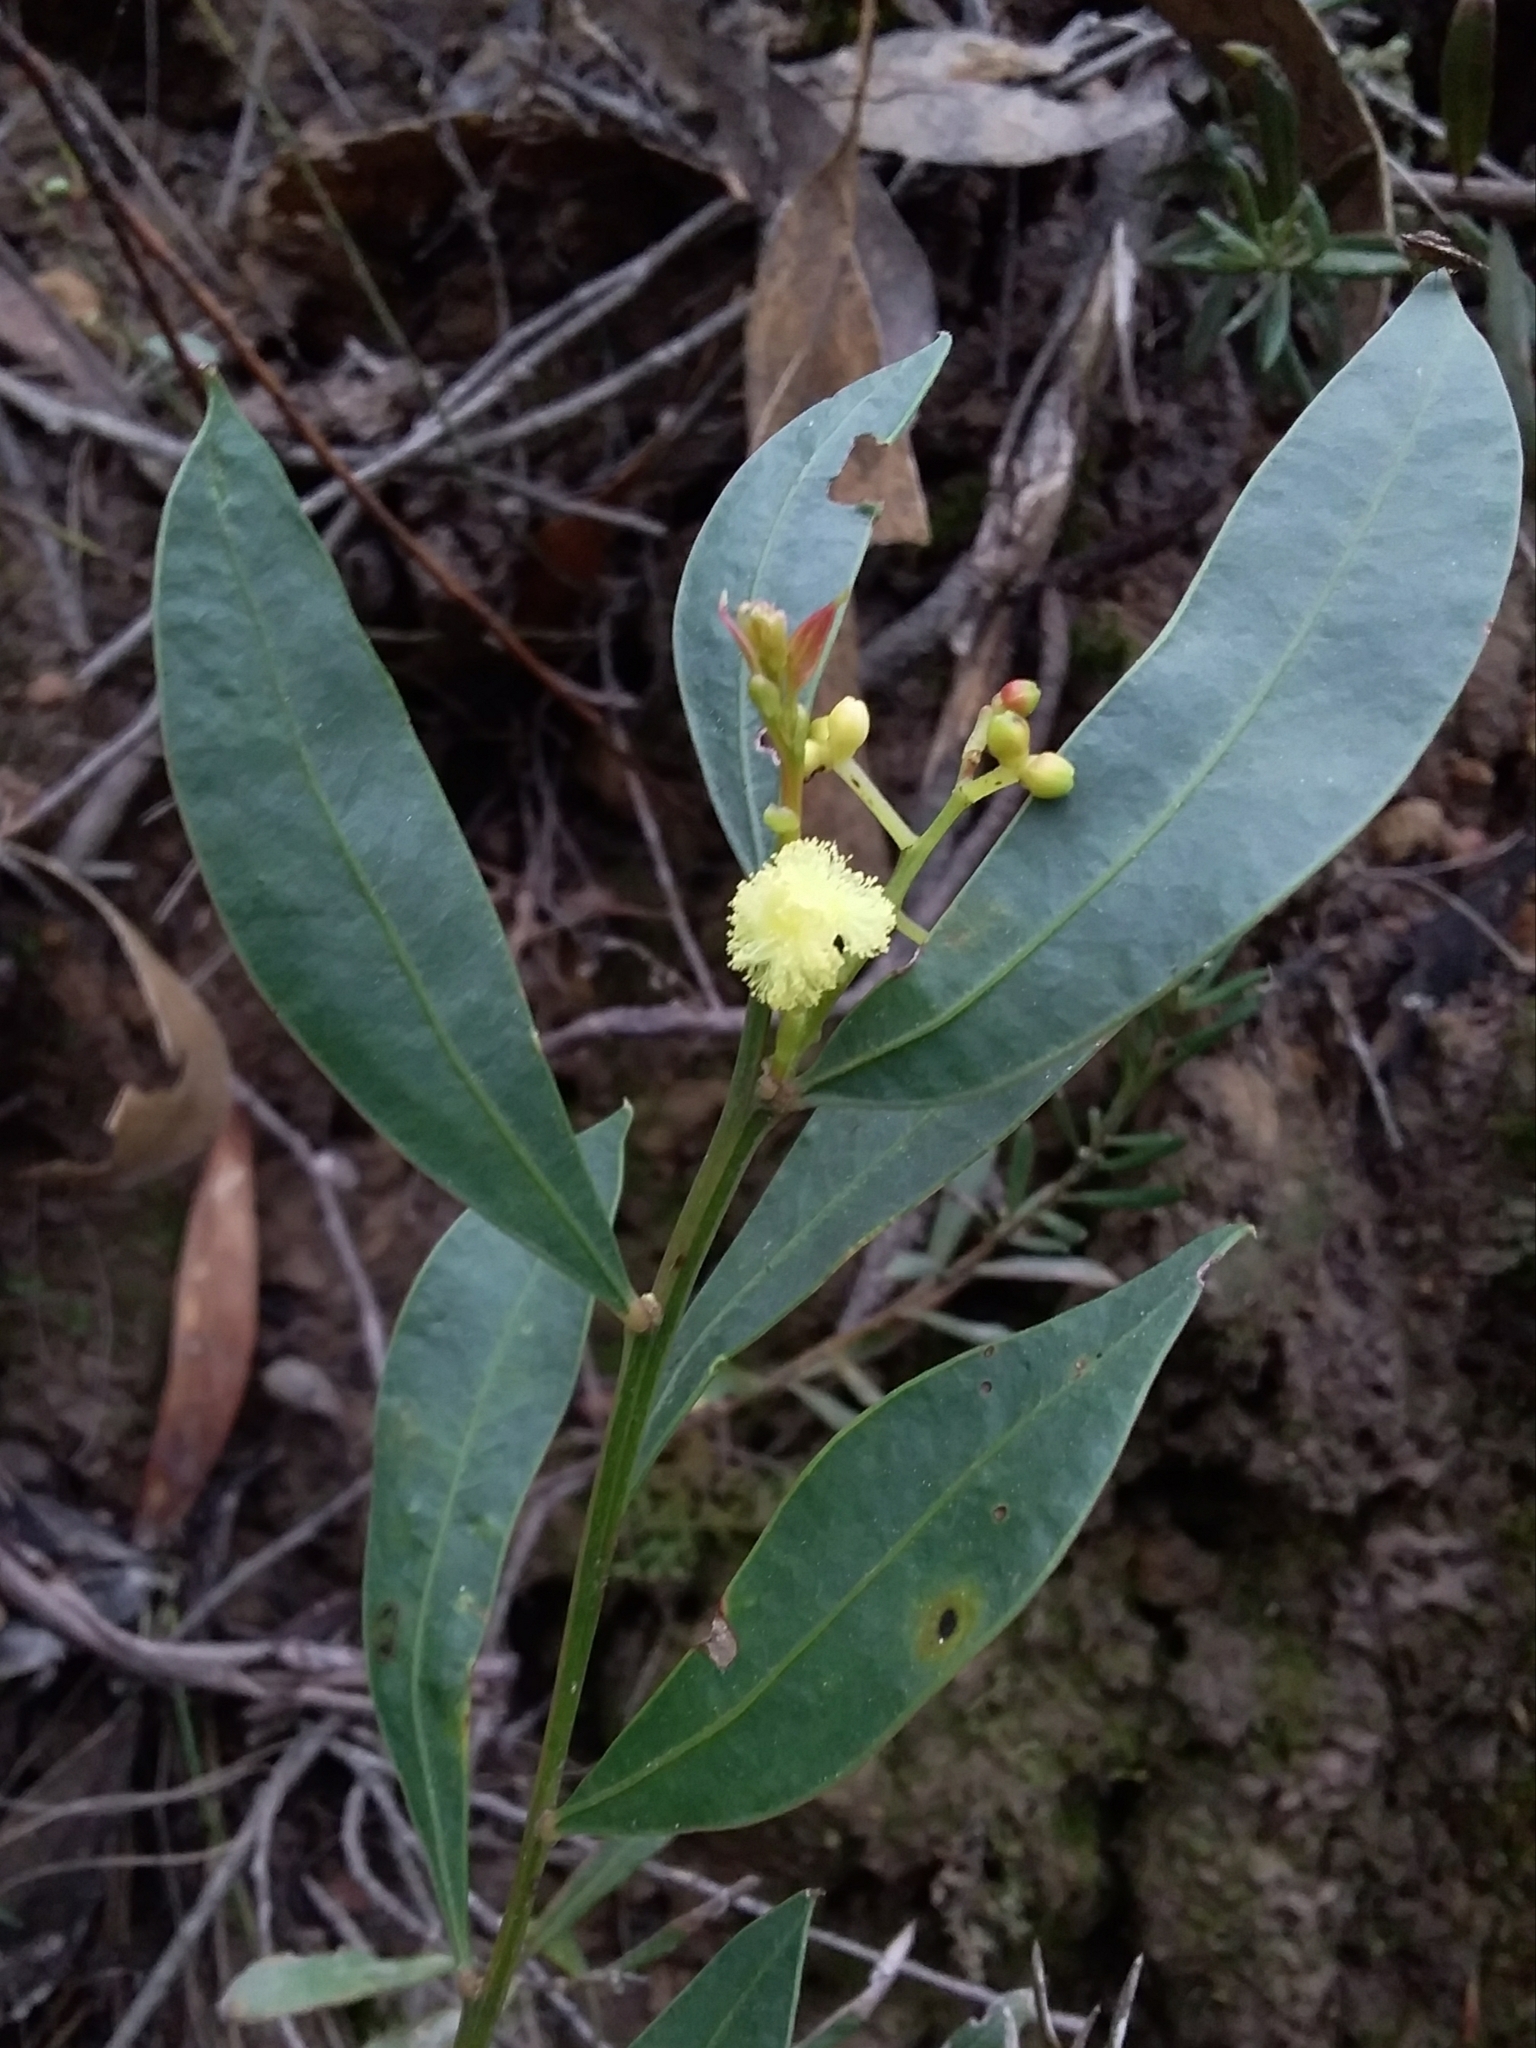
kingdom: Plantae
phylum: Tracheophyta
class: Magnoliopsida
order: Fabales
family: Fabaceae
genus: Acacia
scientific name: Acacia myrtifolia
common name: Myrtle wattle
